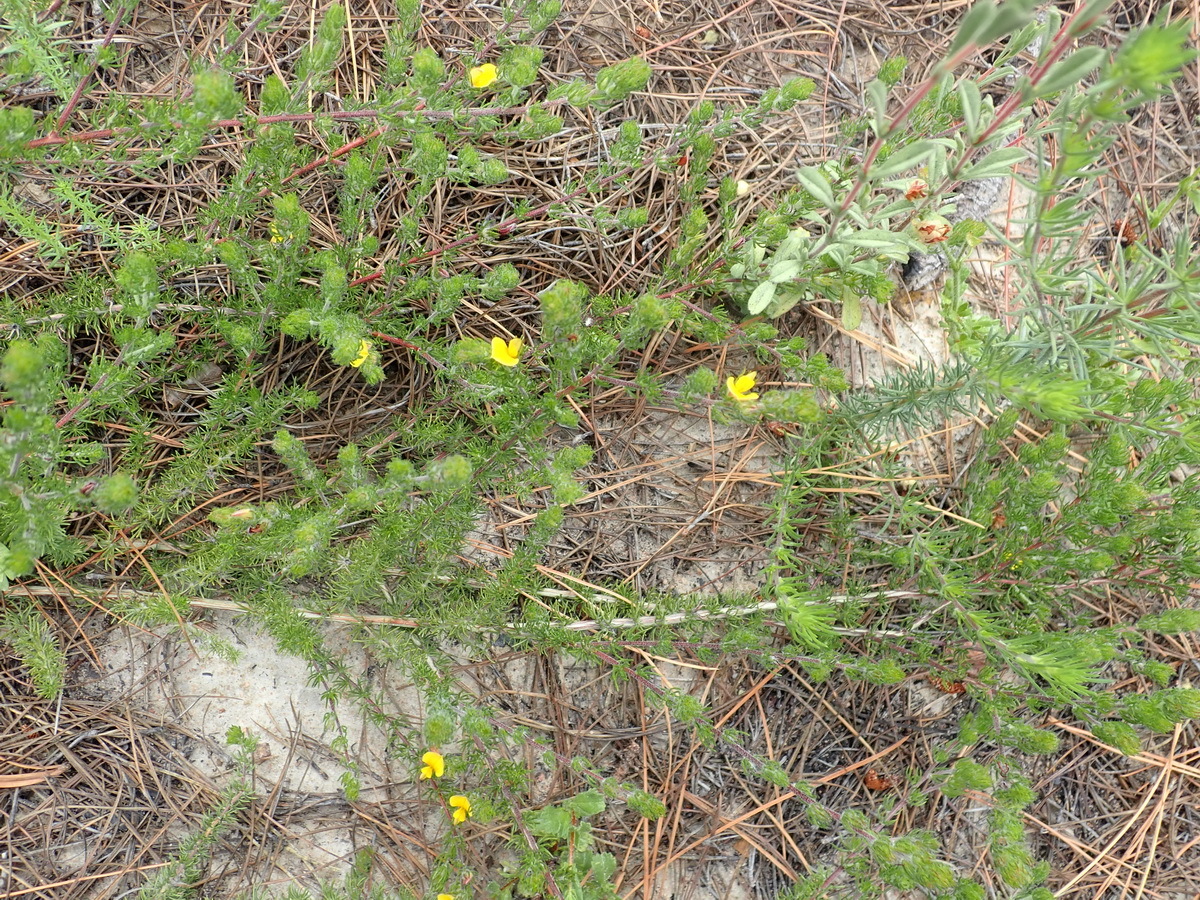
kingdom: Plantae
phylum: Tracheophyta
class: Magnoliopsida
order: Fabales
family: Fabaceae
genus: Aspalathus
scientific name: Aspalathus asparagoides
